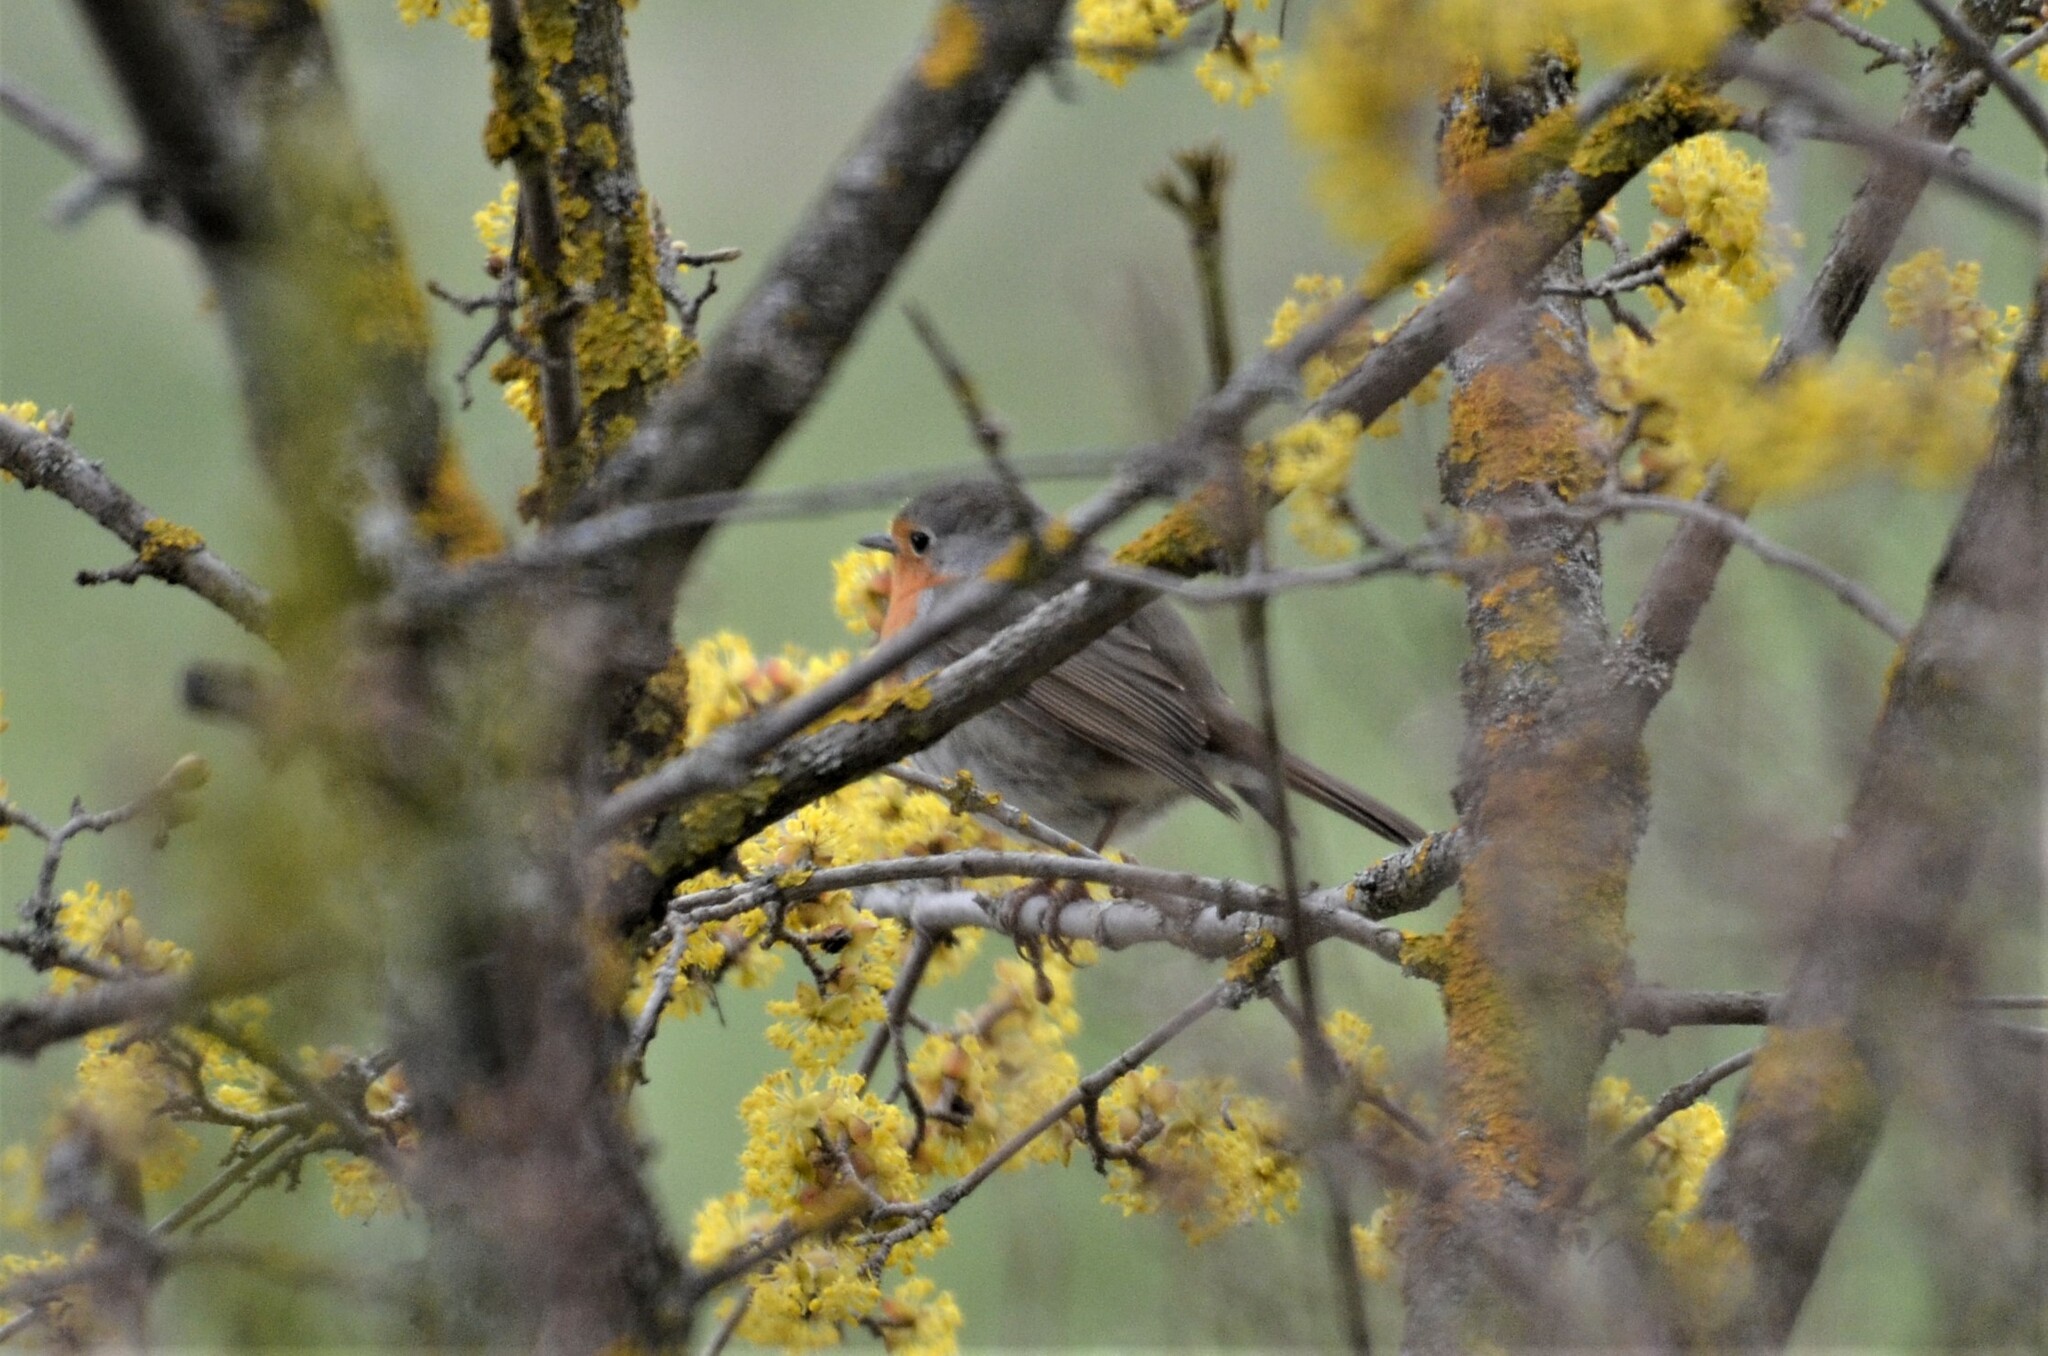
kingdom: Animalia
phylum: Chordata
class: Aves
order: Passeriformes
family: Muscicapidae
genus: Erithacus
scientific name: Erithacus rubecula
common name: European robin
